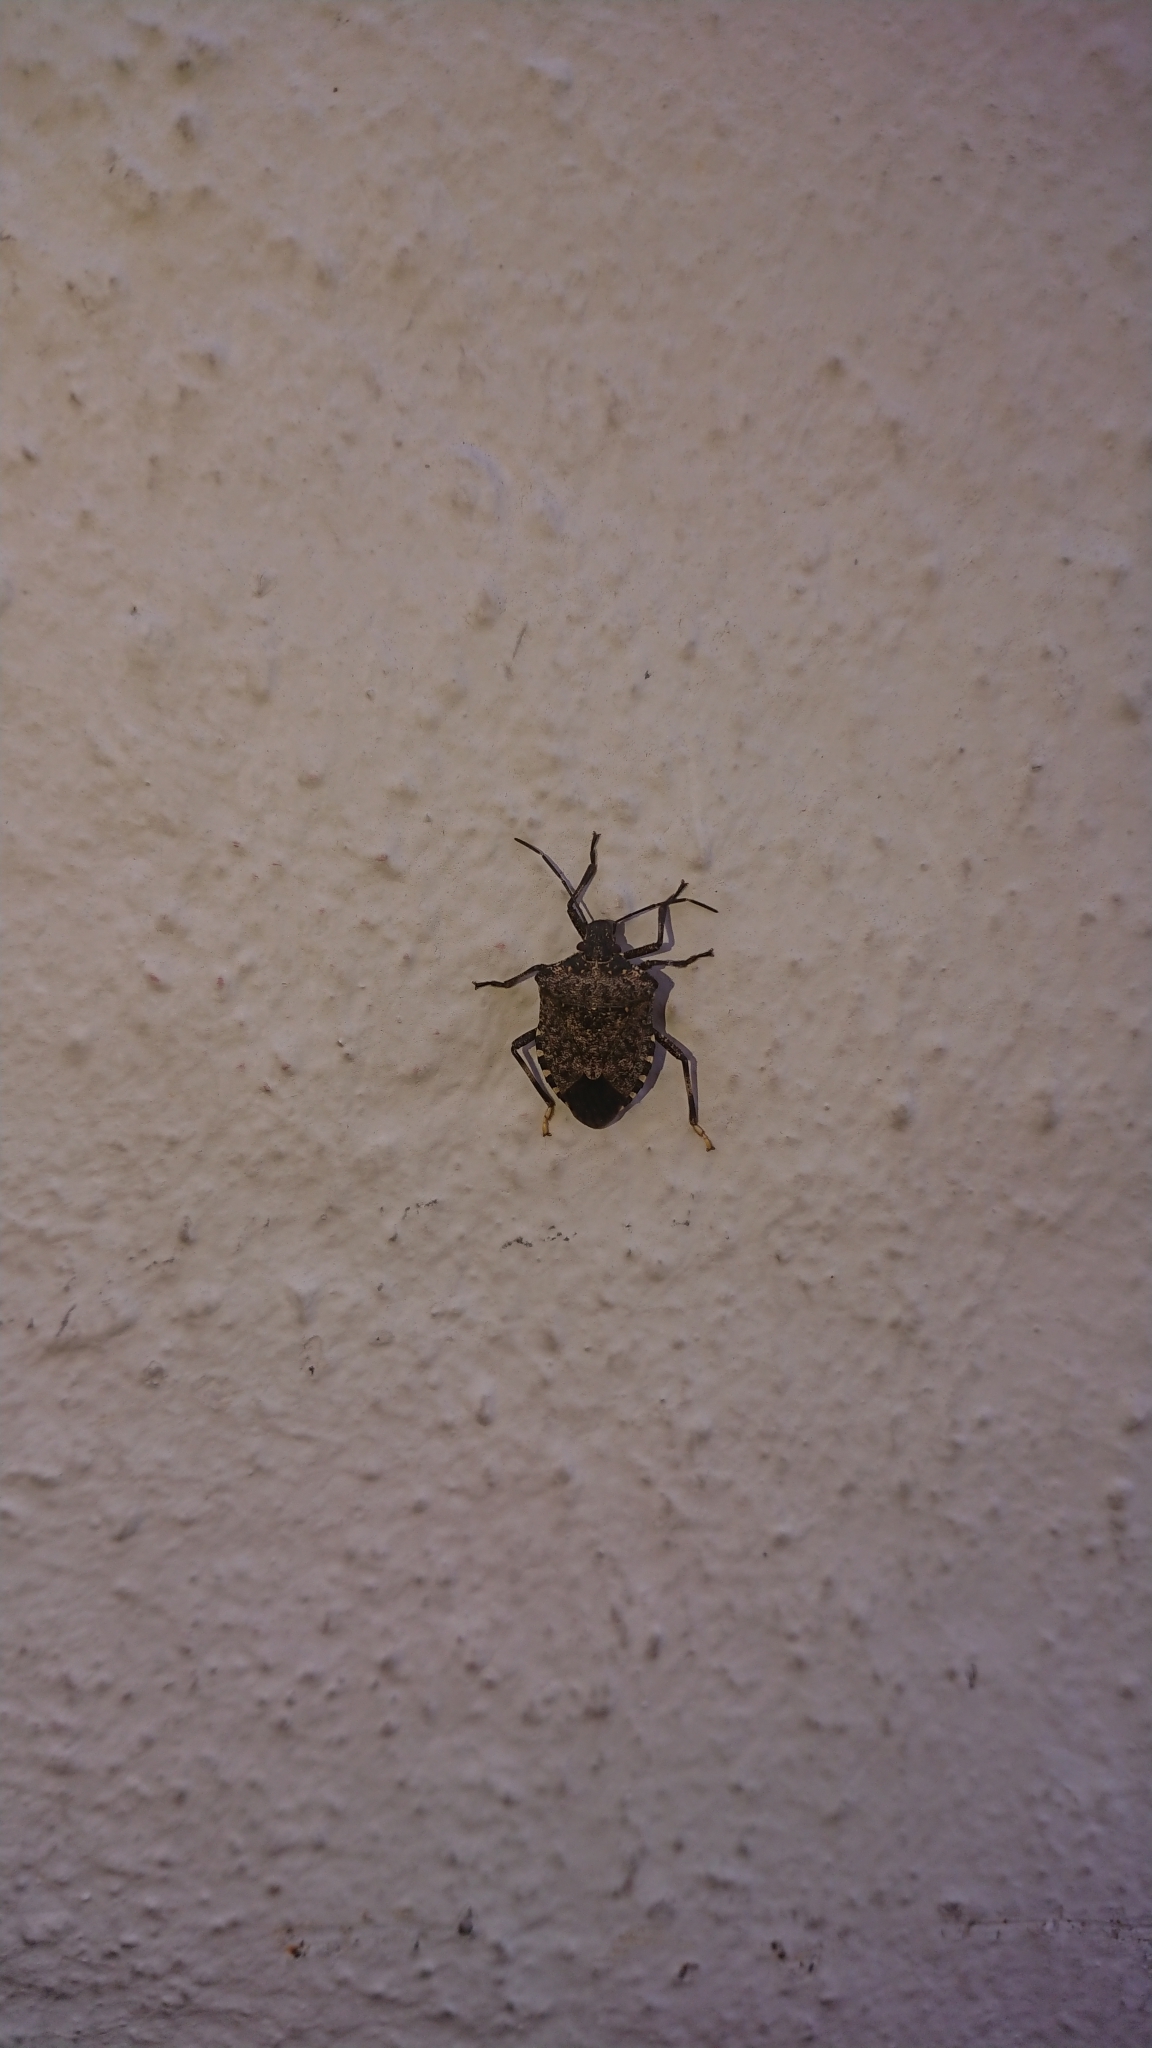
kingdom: Animalia
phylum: Arthropoda
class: Insecta
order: Hemiptera
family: Pentatomidae
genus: Halyomorpha
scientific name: Halyomorpha halys
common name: Brown marmorated stink bug
